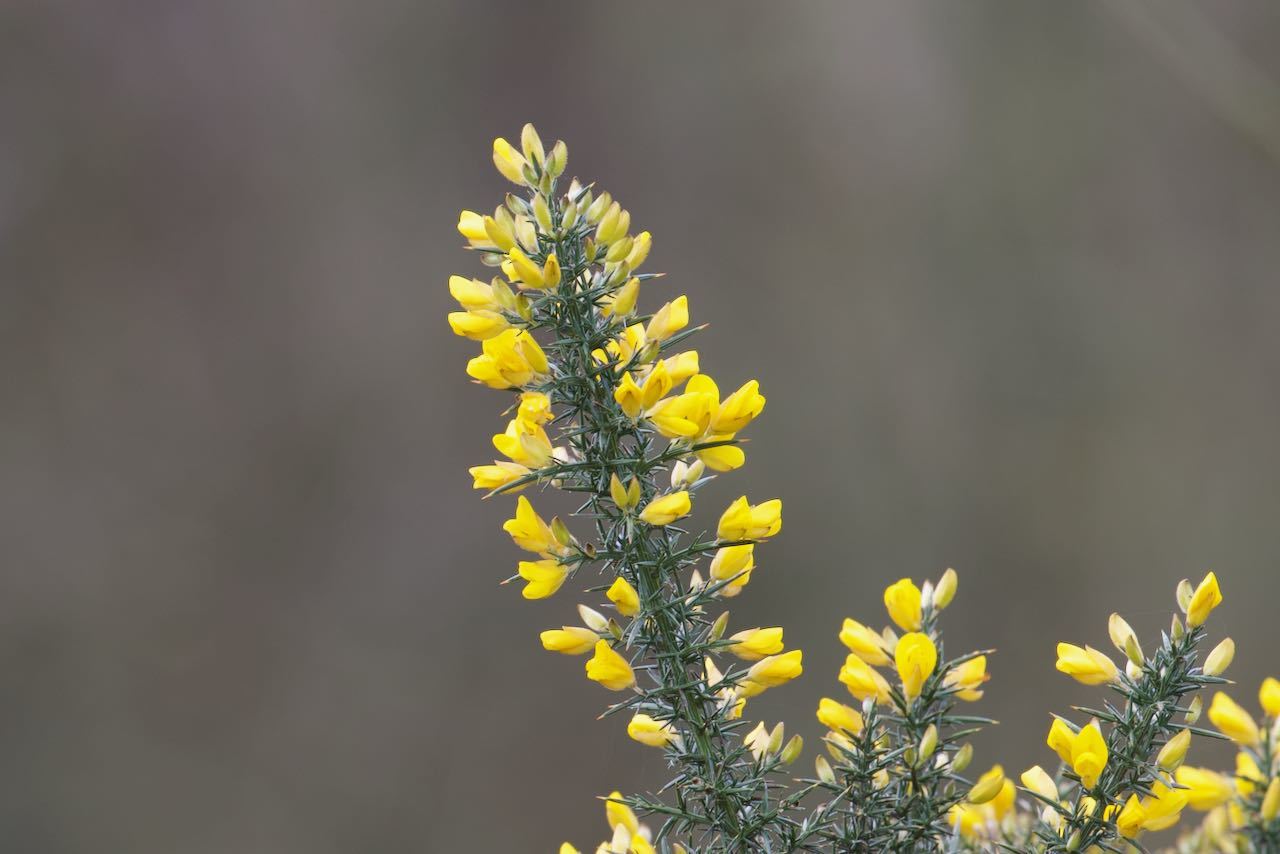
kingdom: Plantae
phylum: Tracheophyta
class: Magnoliopsida
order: Fabales
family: Fabaceae
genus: Ulex
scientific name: Ulex europaeus
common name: Common gorse
